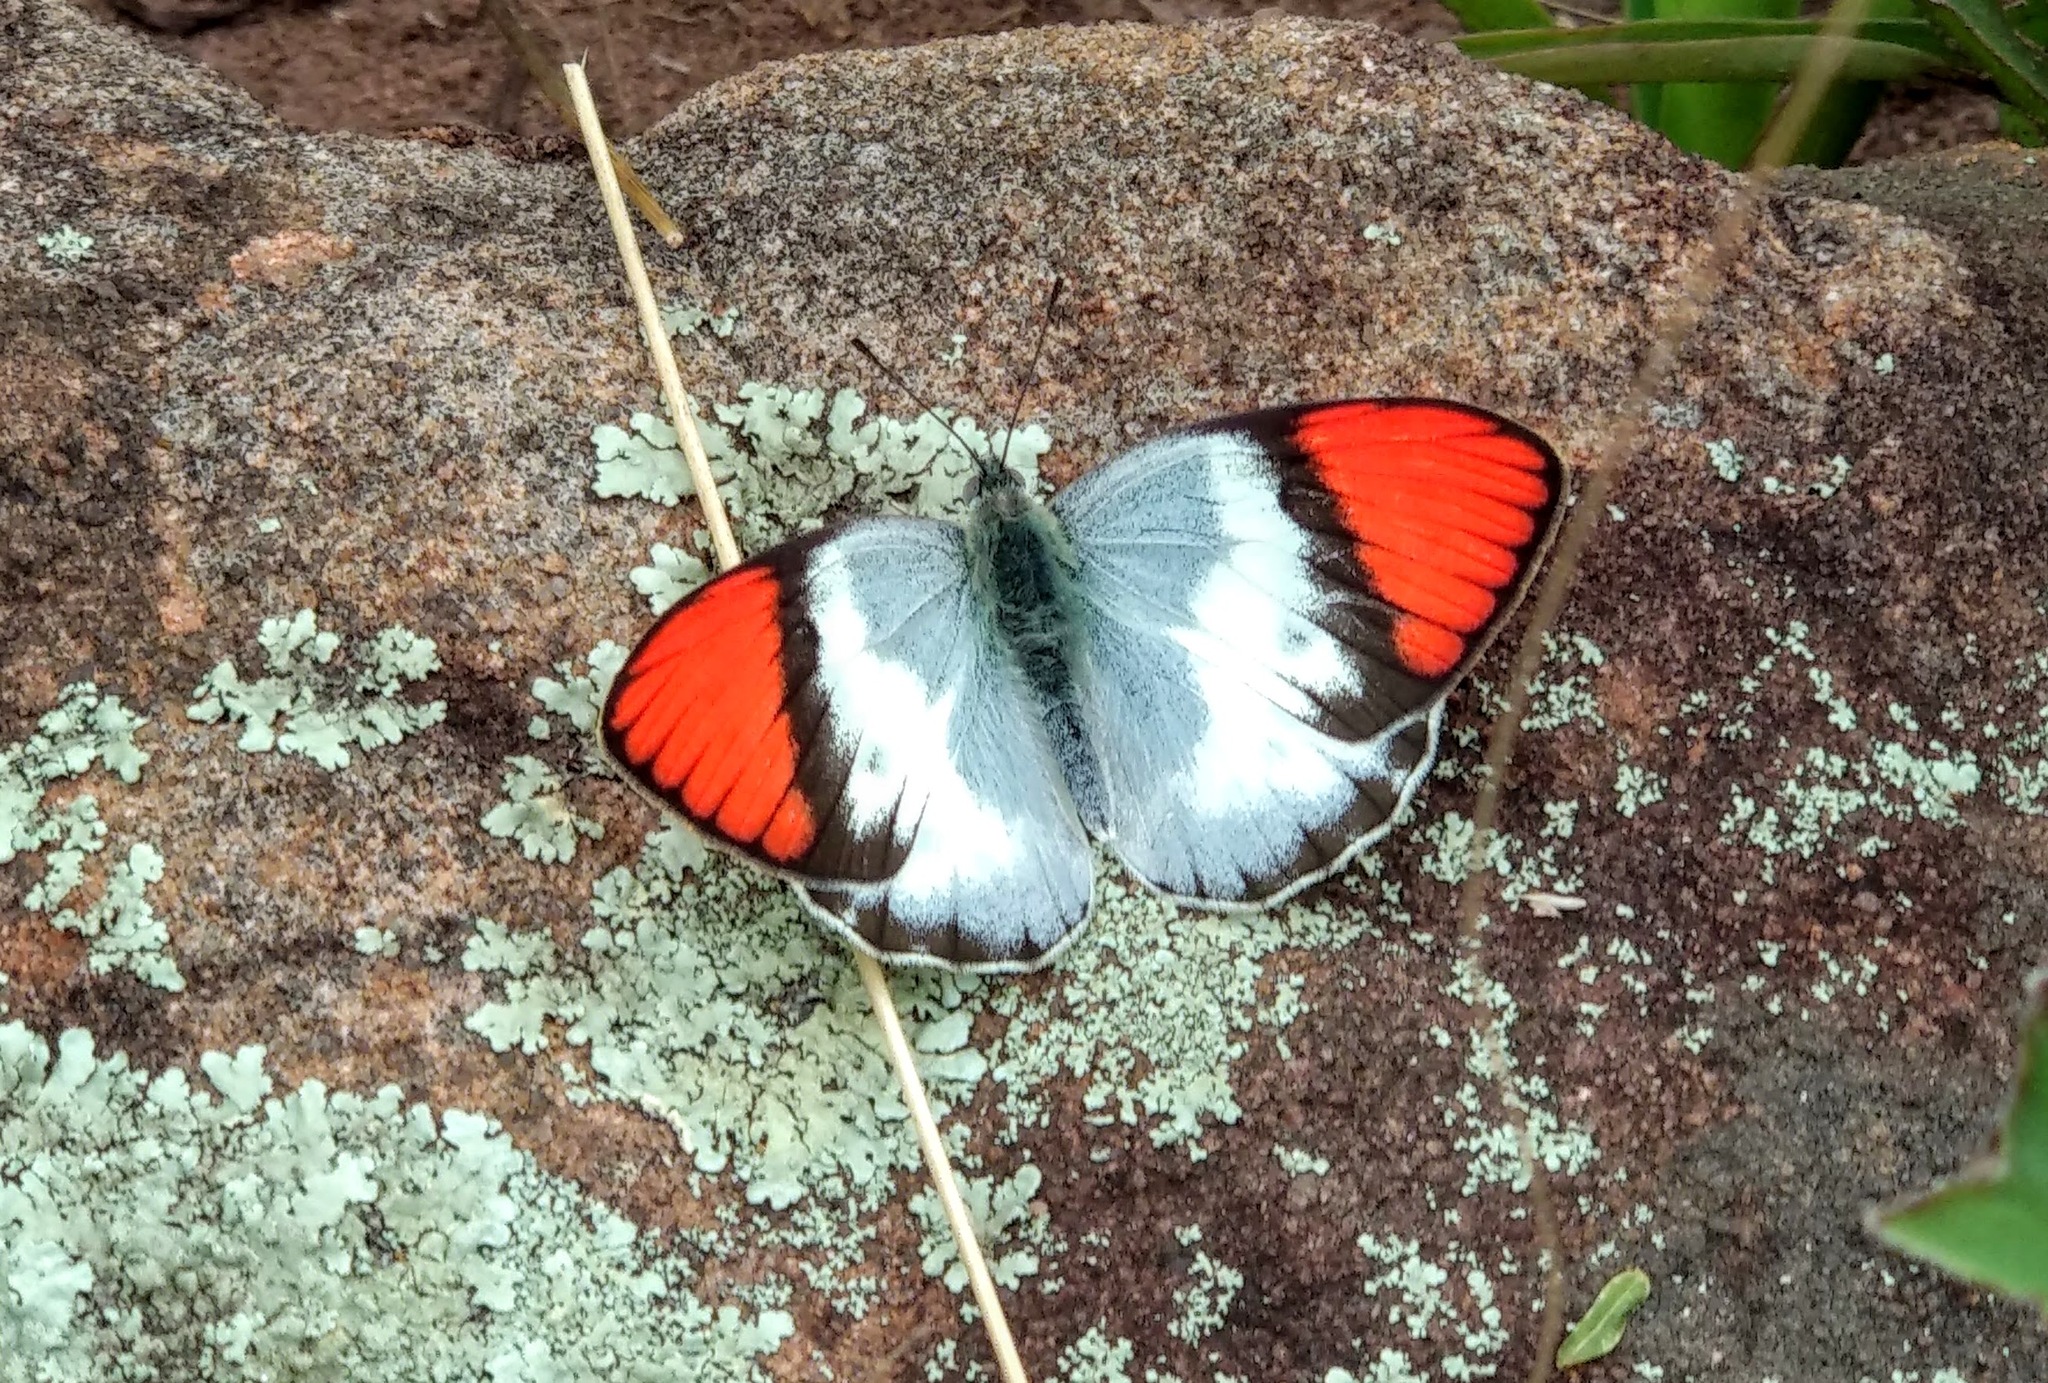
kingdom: Animalia
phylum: Arthropoda
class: Insecta
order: Lepidoptera
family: Pieridae
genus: Colotis
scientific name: Colotis annae
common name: Scarlet tip
